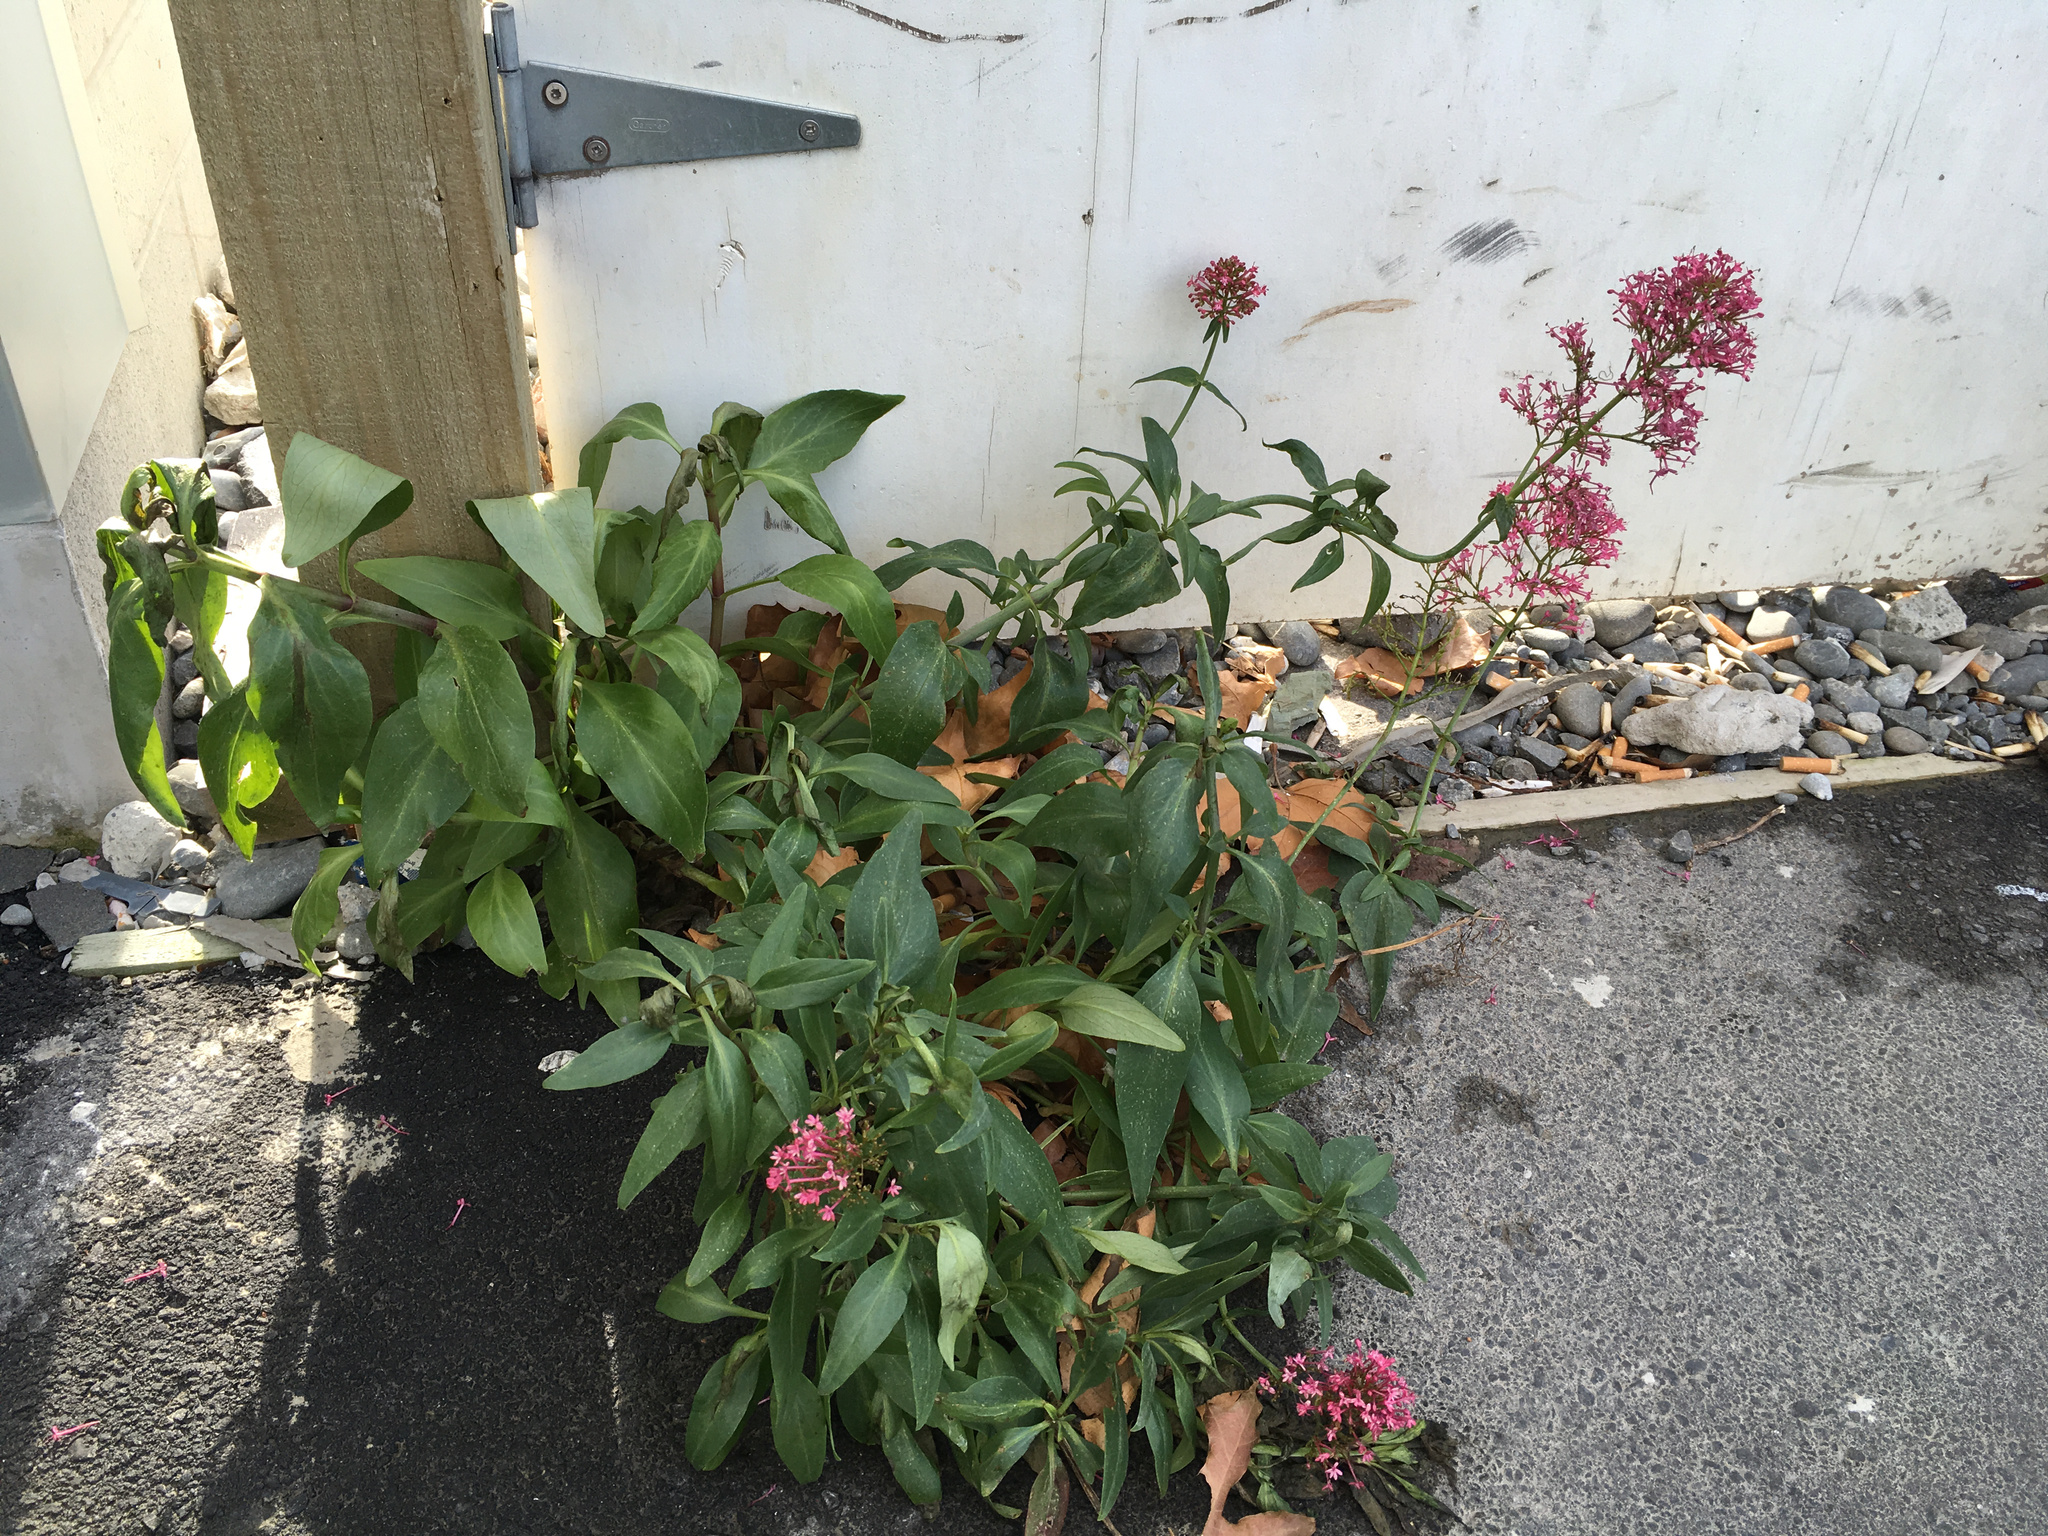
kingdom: Plantae
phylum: Tracheophyta
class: Magnoliopsida
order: Dipsacales
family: Caprifoliaceae
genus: Centranthus
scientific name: Centranthus ruber
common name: Red valerian
